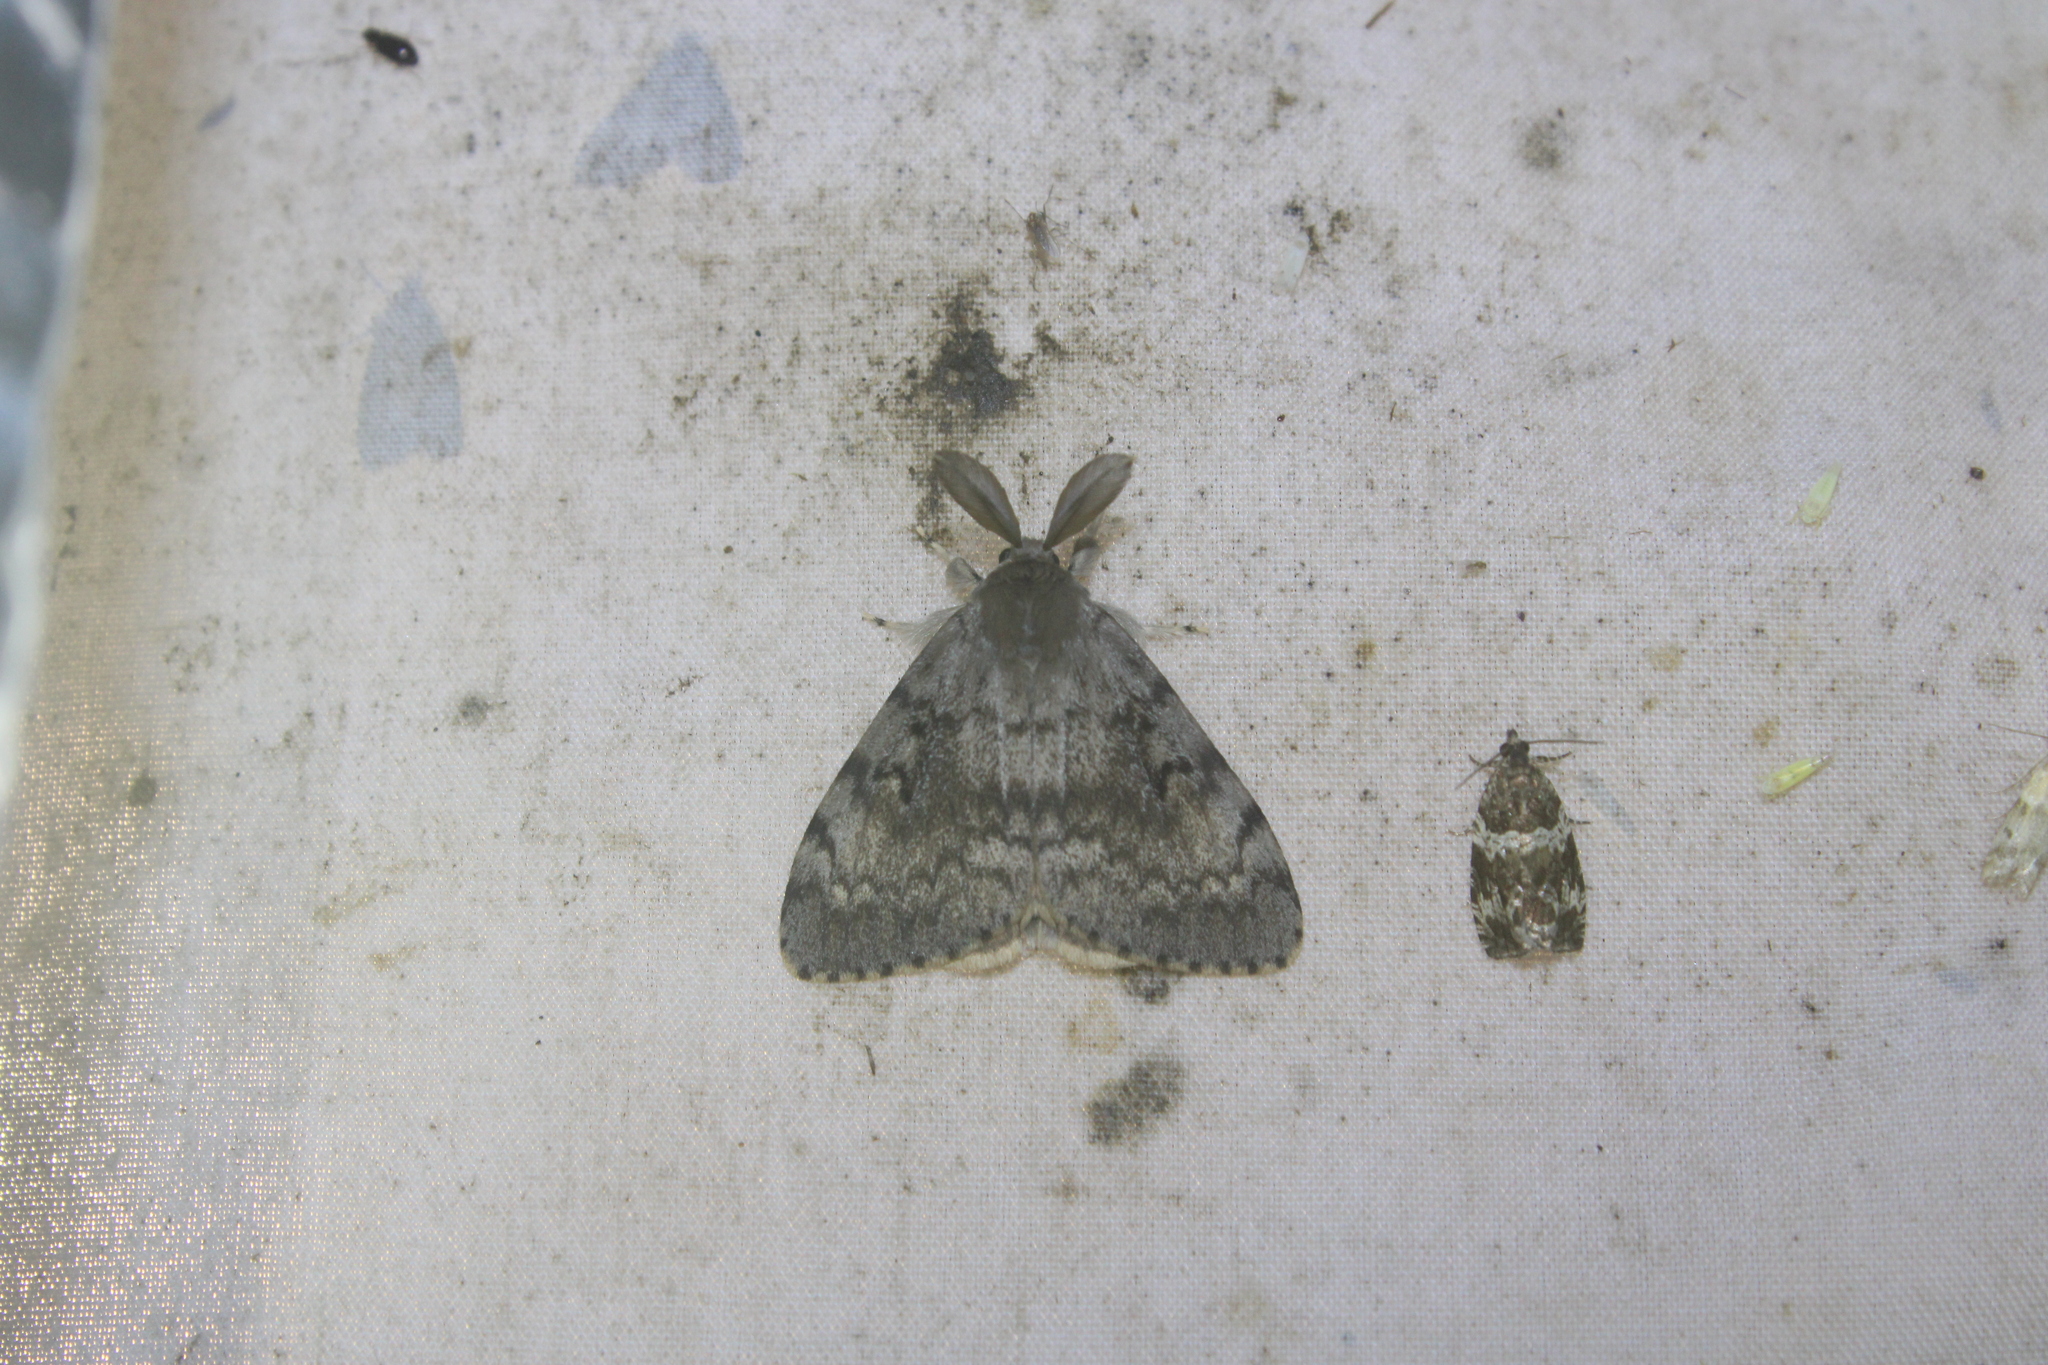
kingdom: Animalia
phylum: Arthropoda
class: Insecta
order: Lepidoptera
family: Erebidae
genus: Lymantria
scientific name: Lymantria dispar
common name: Gypsy moth
